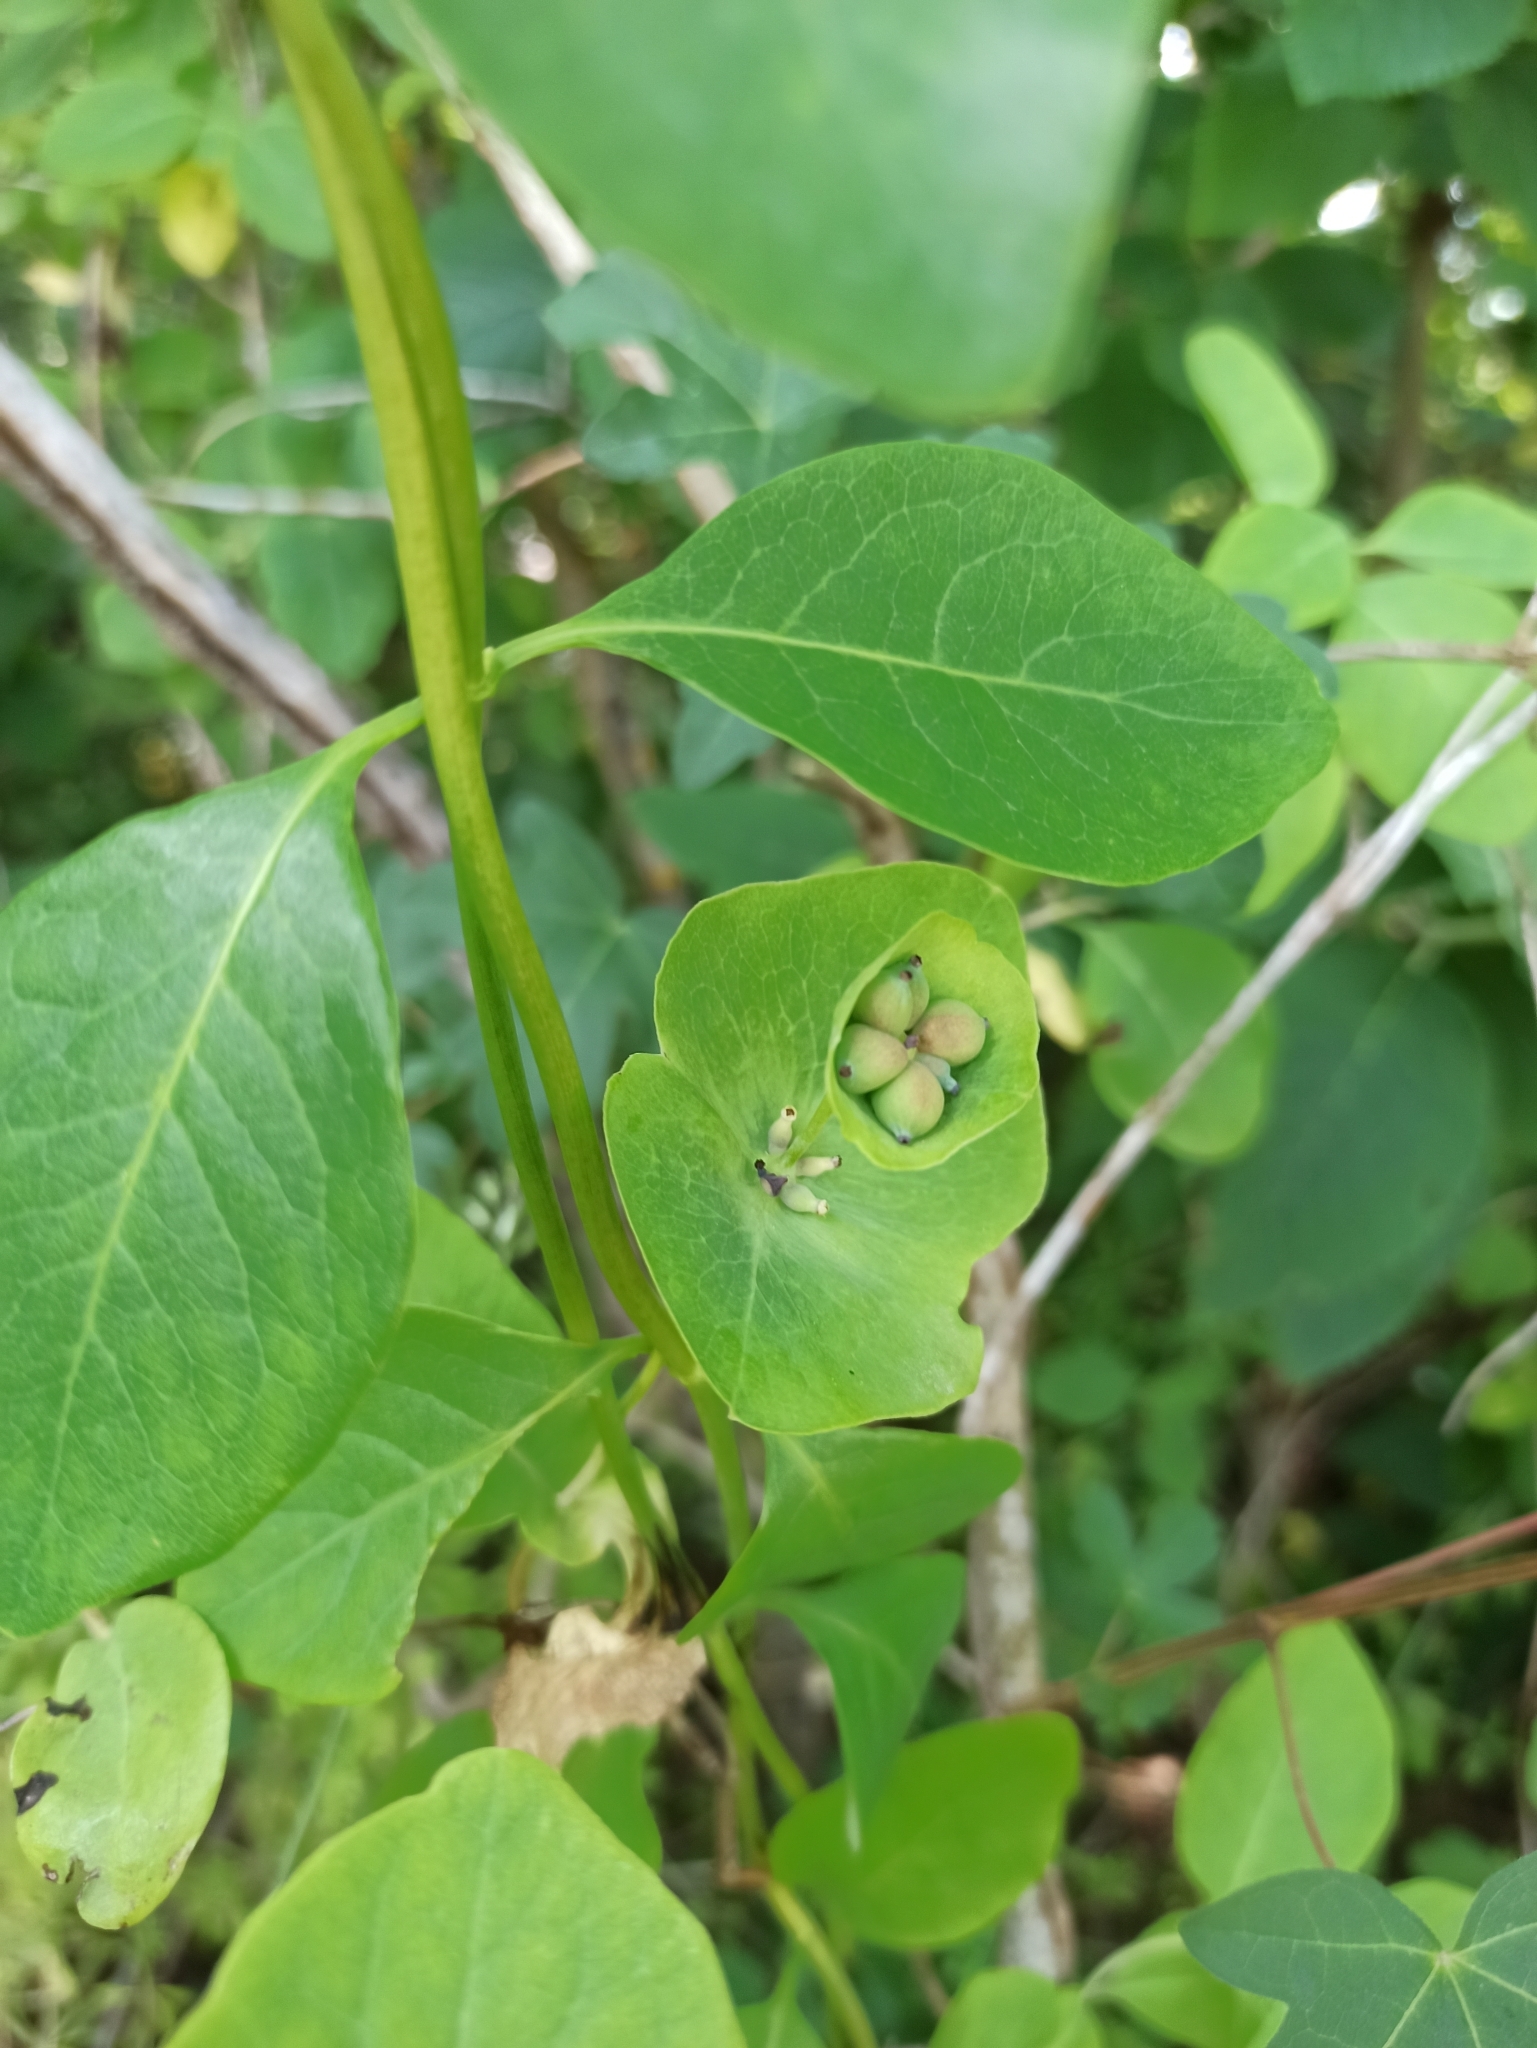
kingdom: Plantae
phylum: Tracheophyta
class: Magnoliopsida
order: Dipsacales
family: Caprifoliaceae
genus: Lonicera
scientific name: Lonicera caprifolium
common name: Perfoliate honeysuckle
